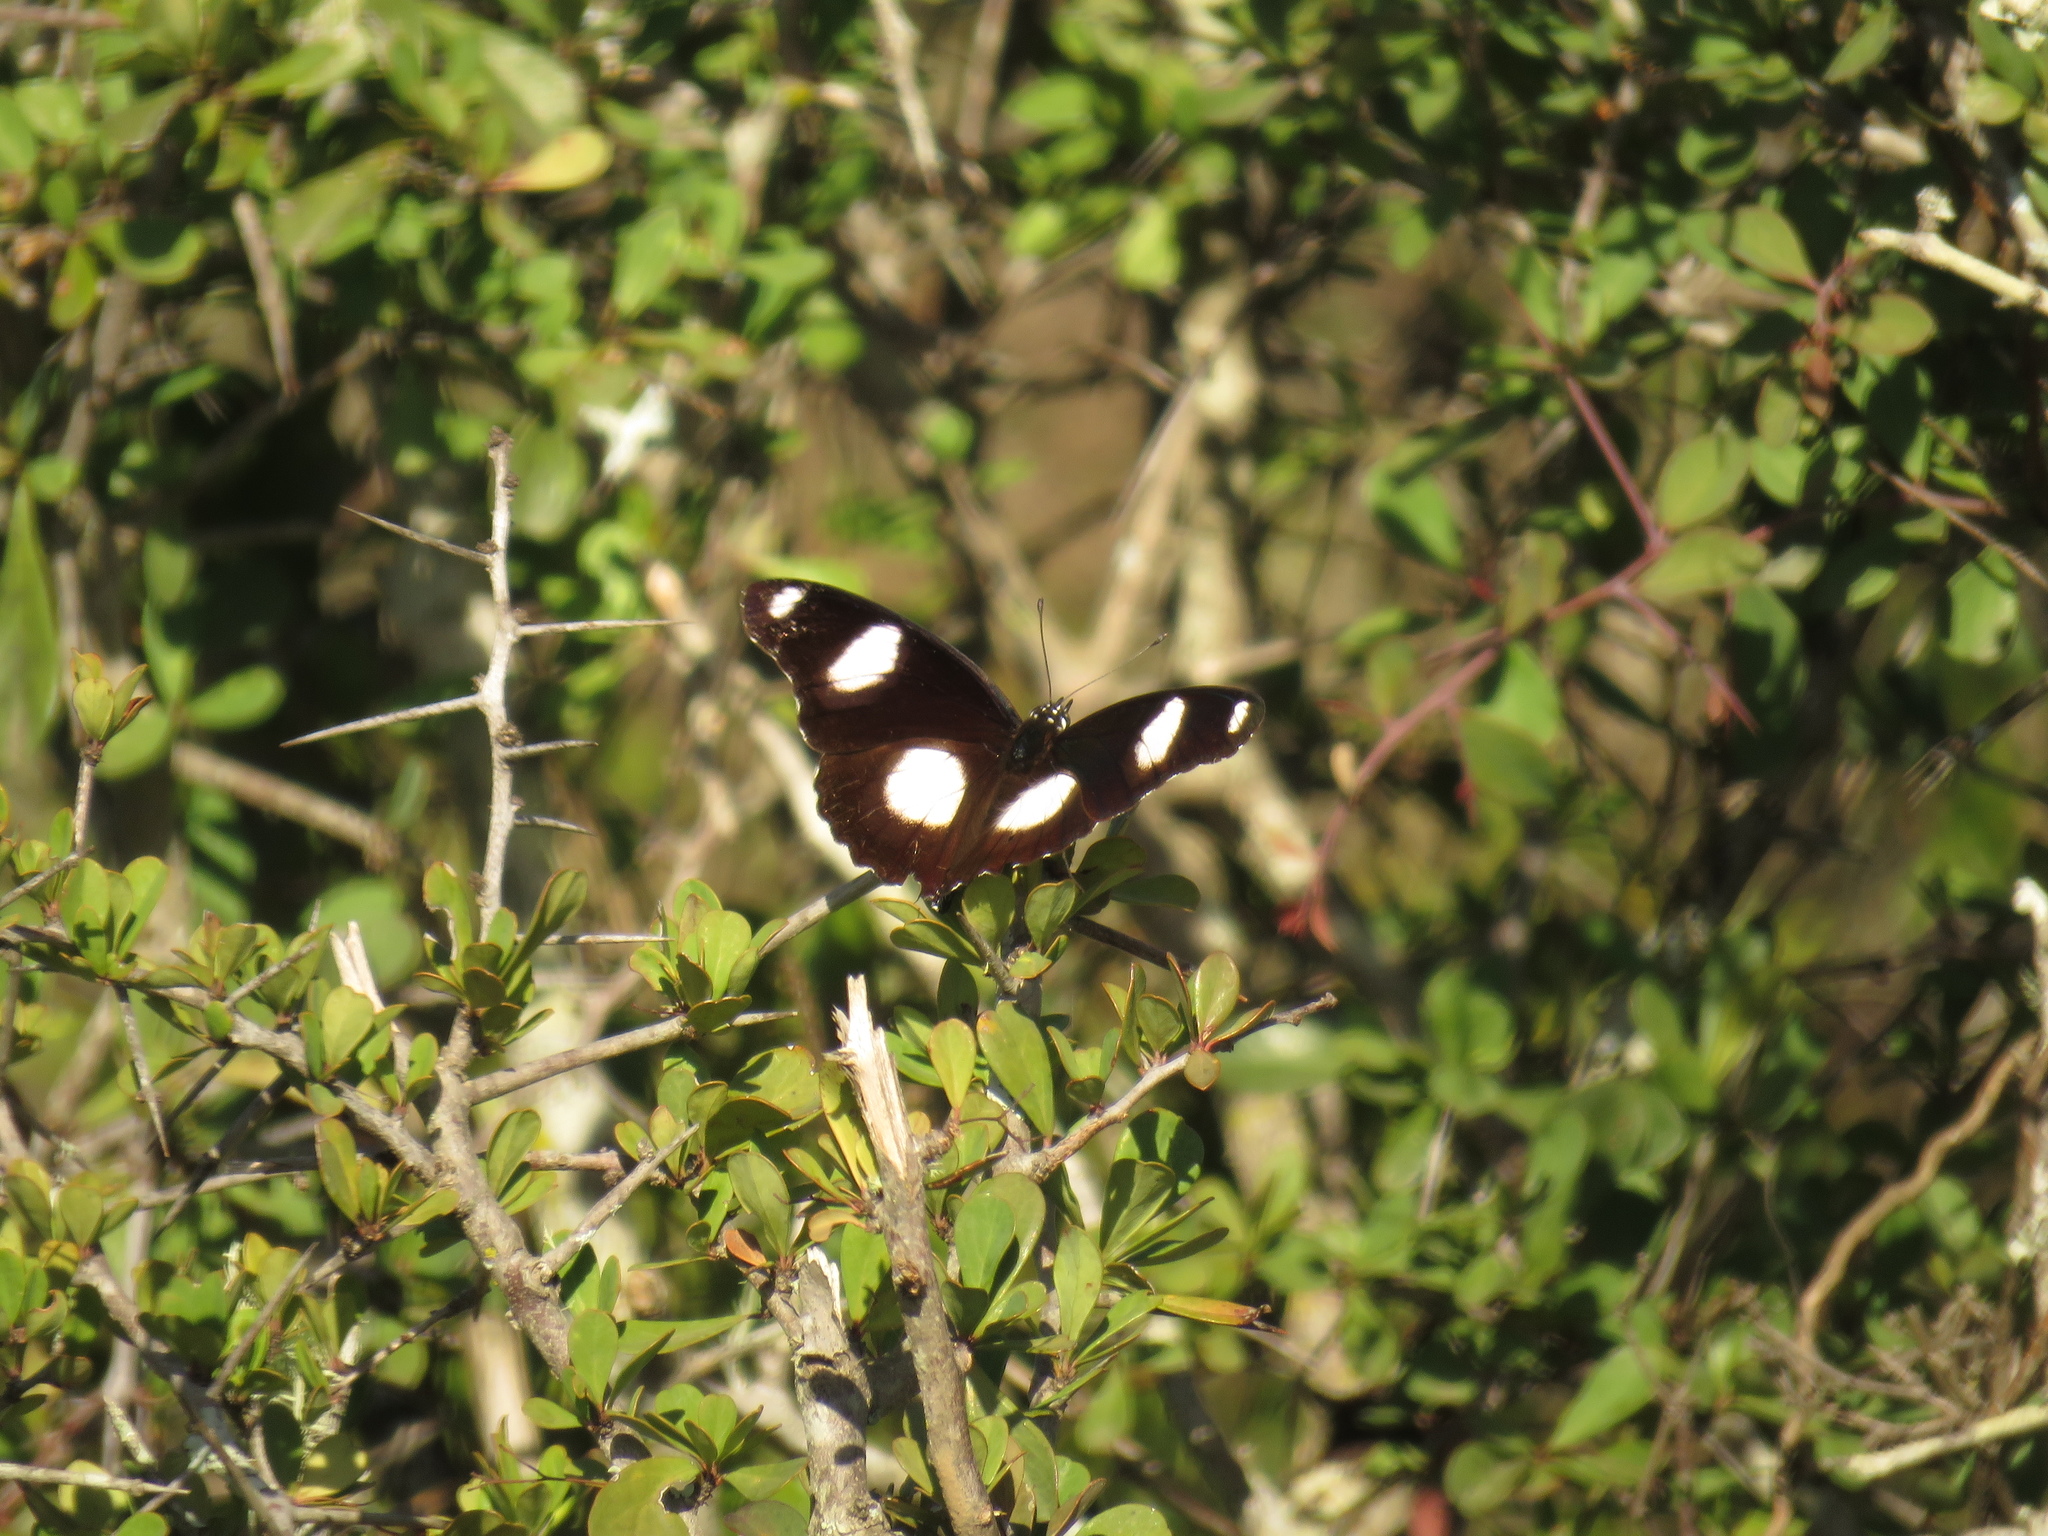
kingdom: Animalia
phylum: Arthropoda
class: Insecta
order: Lepidoptera
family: Nymphalidae
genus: Hypolimnas
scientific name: Hypolimnas misippus
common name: False plain tiger
